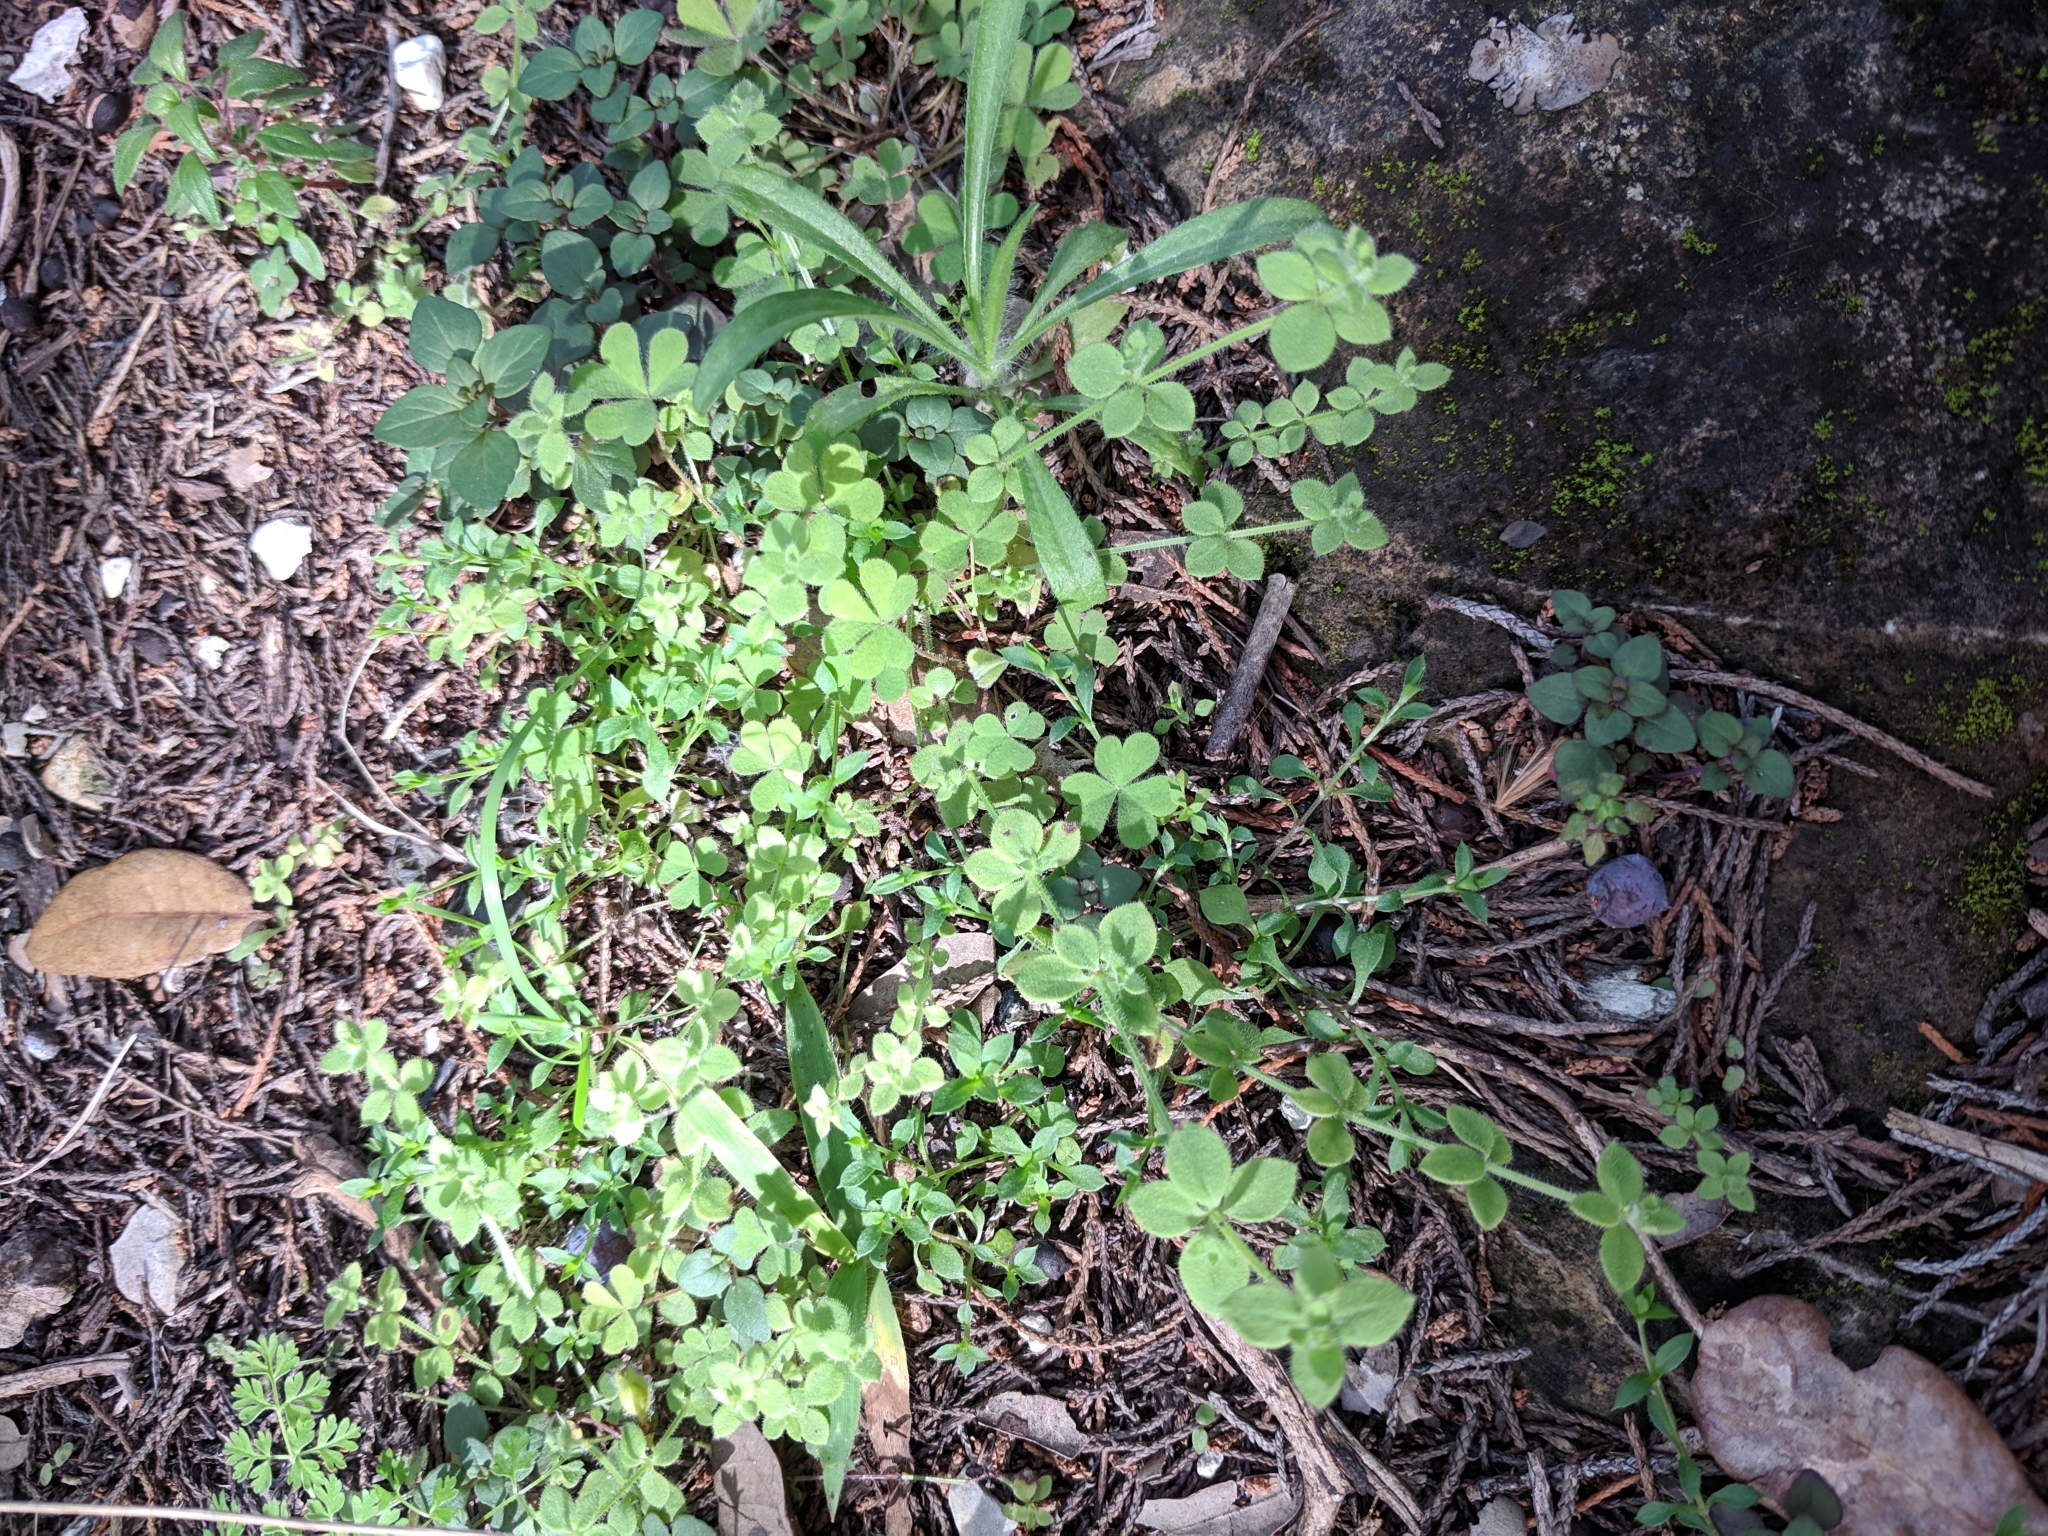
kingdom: Plantae
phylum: Tracheophyta
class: Magnoliopsida
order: Gentianales
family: Rubiaceae
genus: Galium
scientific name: Galium texense
